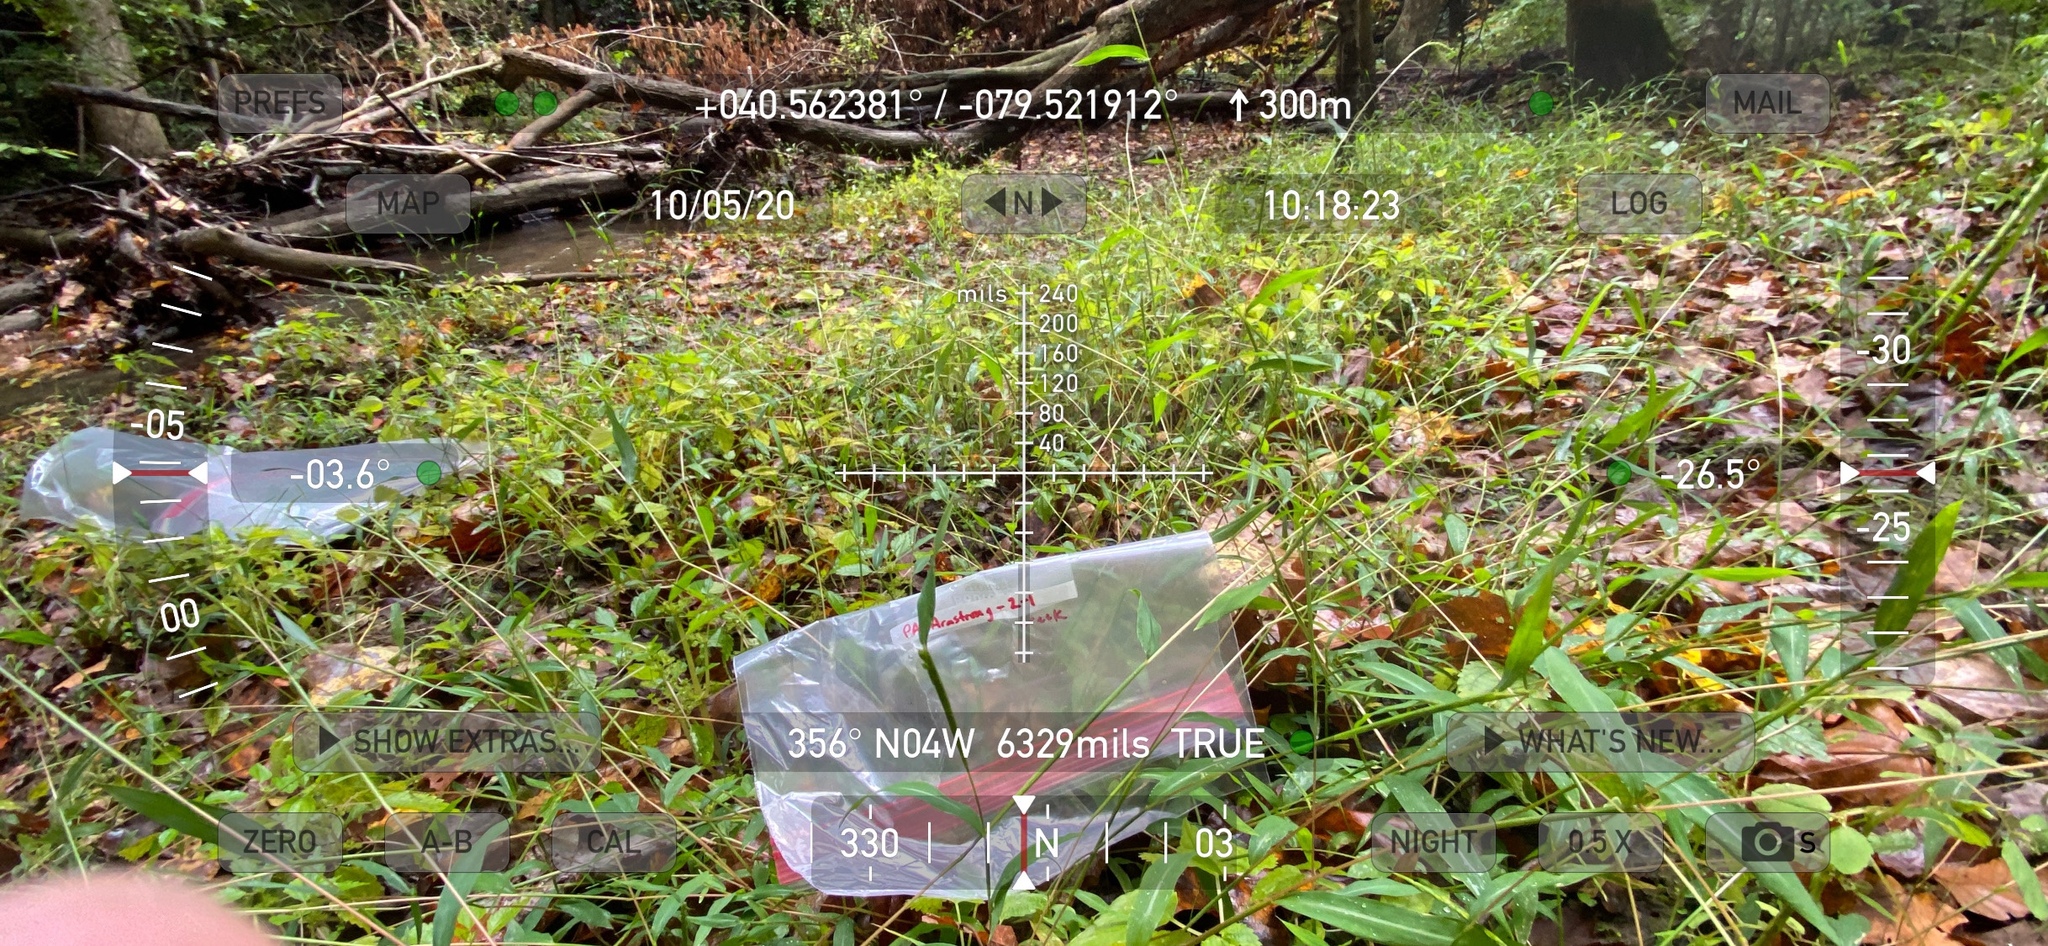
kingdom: Plantae
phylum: Tracheophyta
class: Liliopsida
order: Poales
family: Poaceae
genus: Microstegium
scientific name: Microstegium vimineum
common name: Japanese stiltgrass
